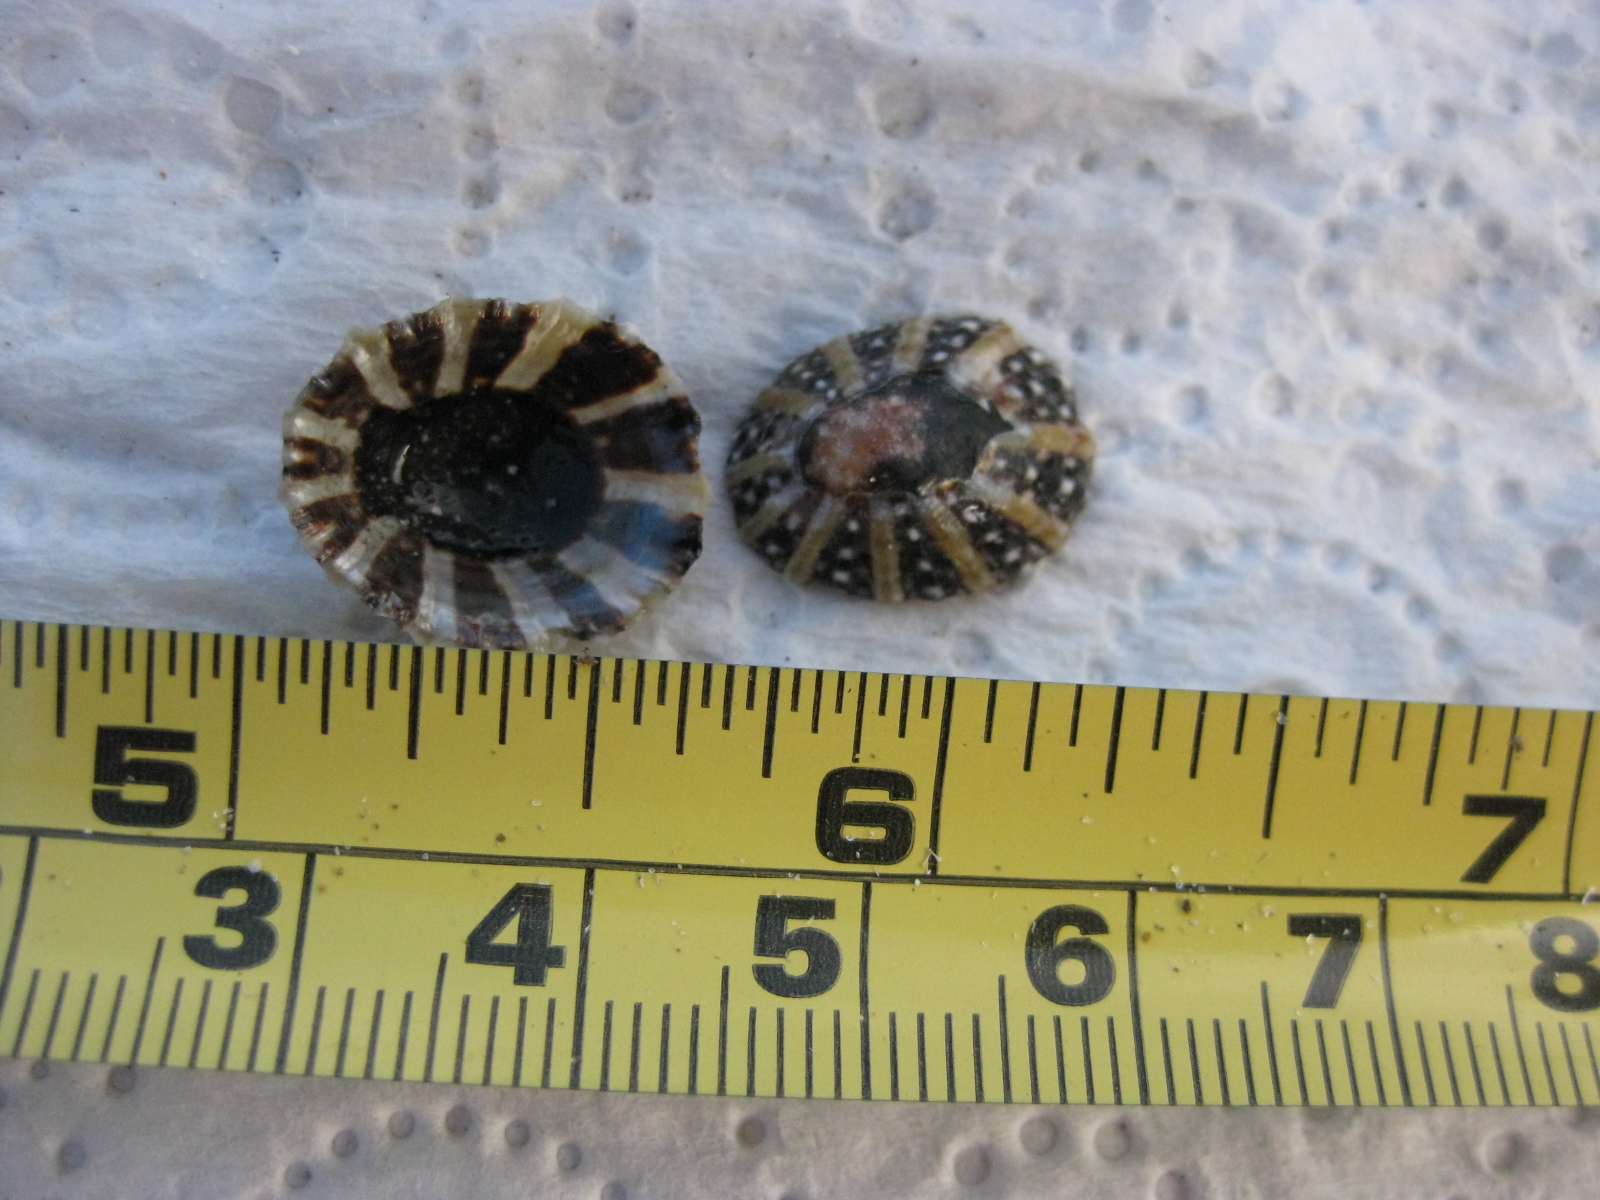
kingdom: Animalia
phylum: Mollusca
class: Gastropoda
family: Nacellidae
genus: Cellana
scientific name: Cellana ornata
